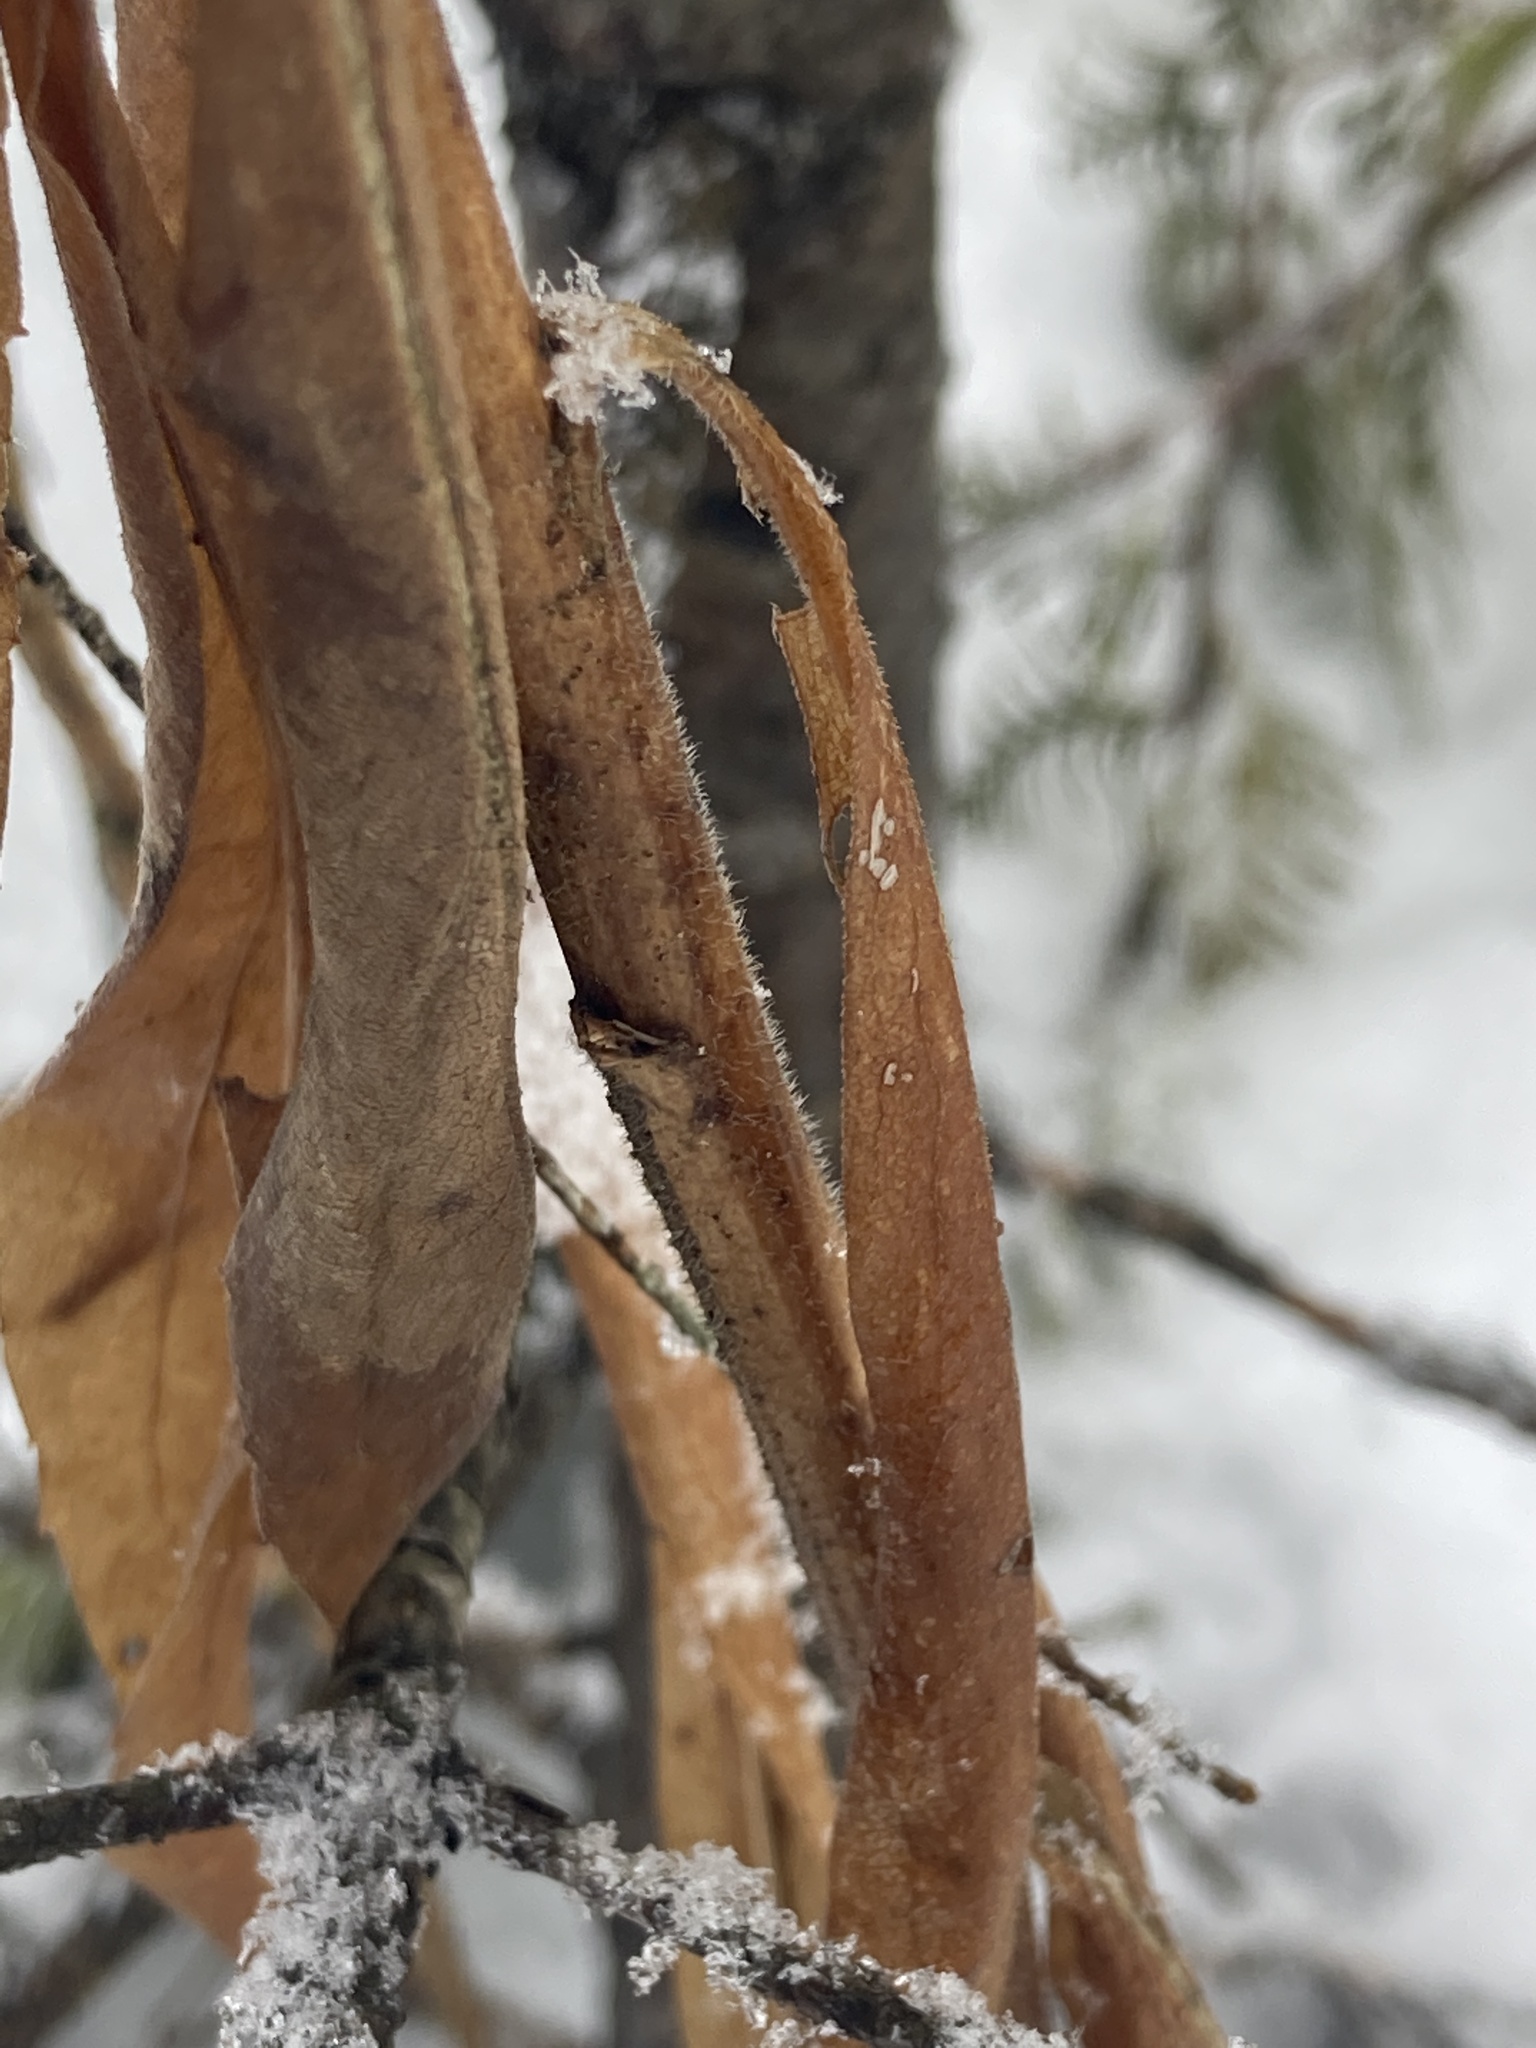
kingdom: Plantae
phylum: Tracheophyta
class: Magnoliopsida
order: Asterales
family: Asteraceae
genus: Solidago
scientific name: Solidago altissima
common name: Late goldenrod
